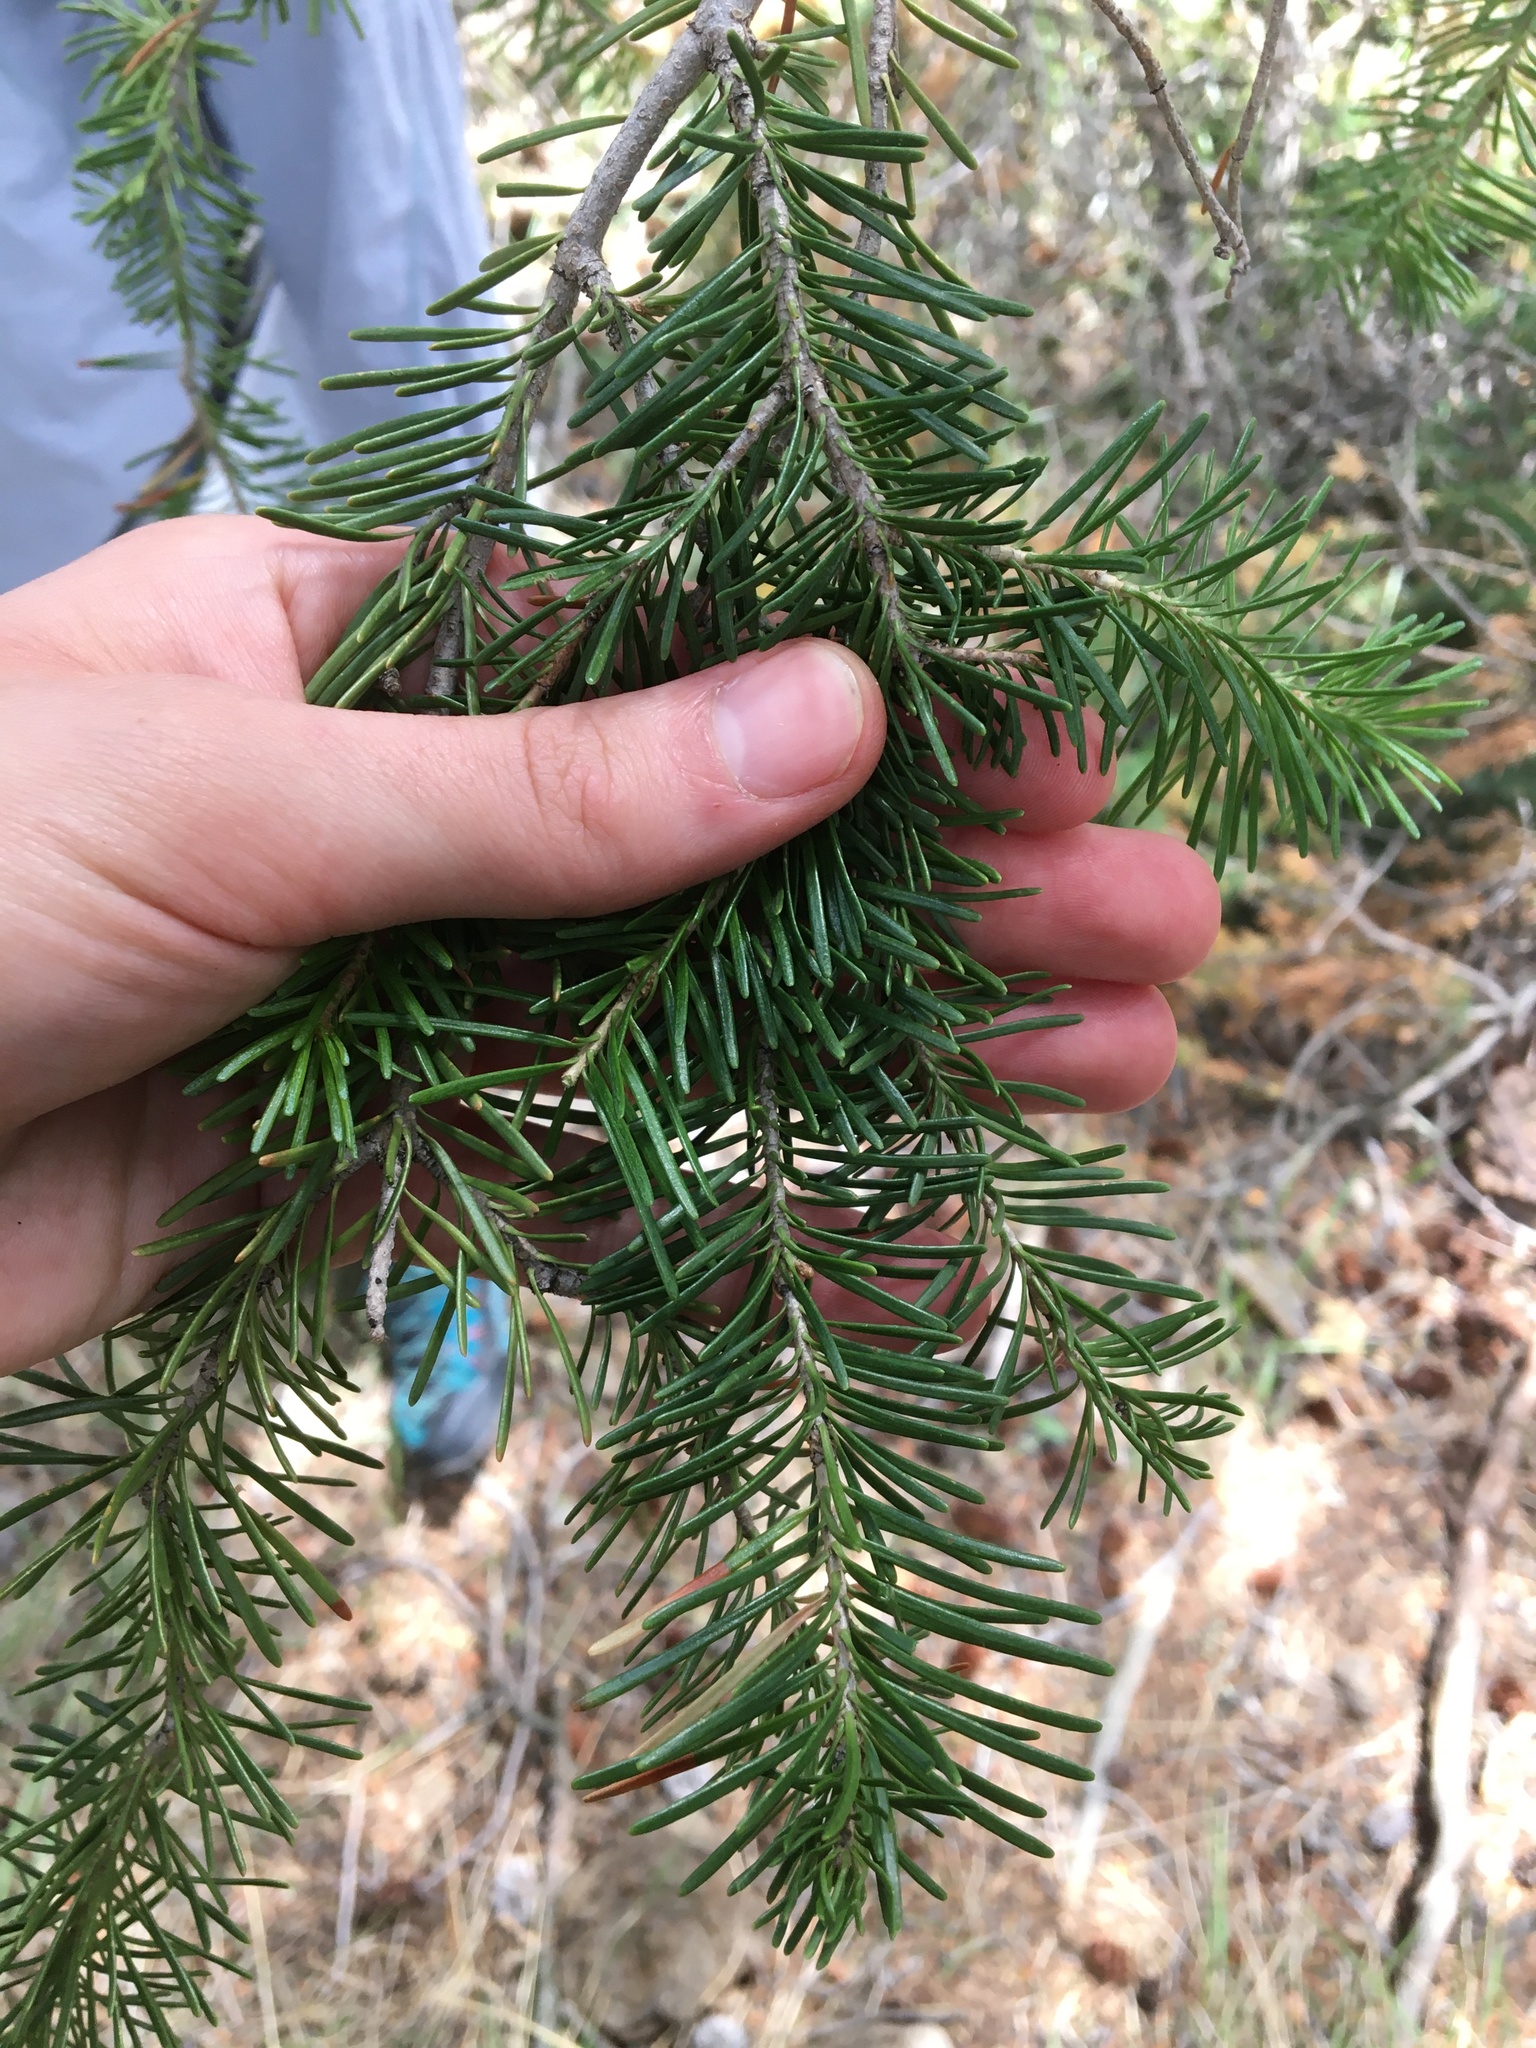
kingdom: Plantae
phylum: Tracheophyta
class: Pinopsida
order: Pinales
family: Pinaceae
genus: Abies
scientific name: Abies lasiocarpa
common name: Subalpine fir
